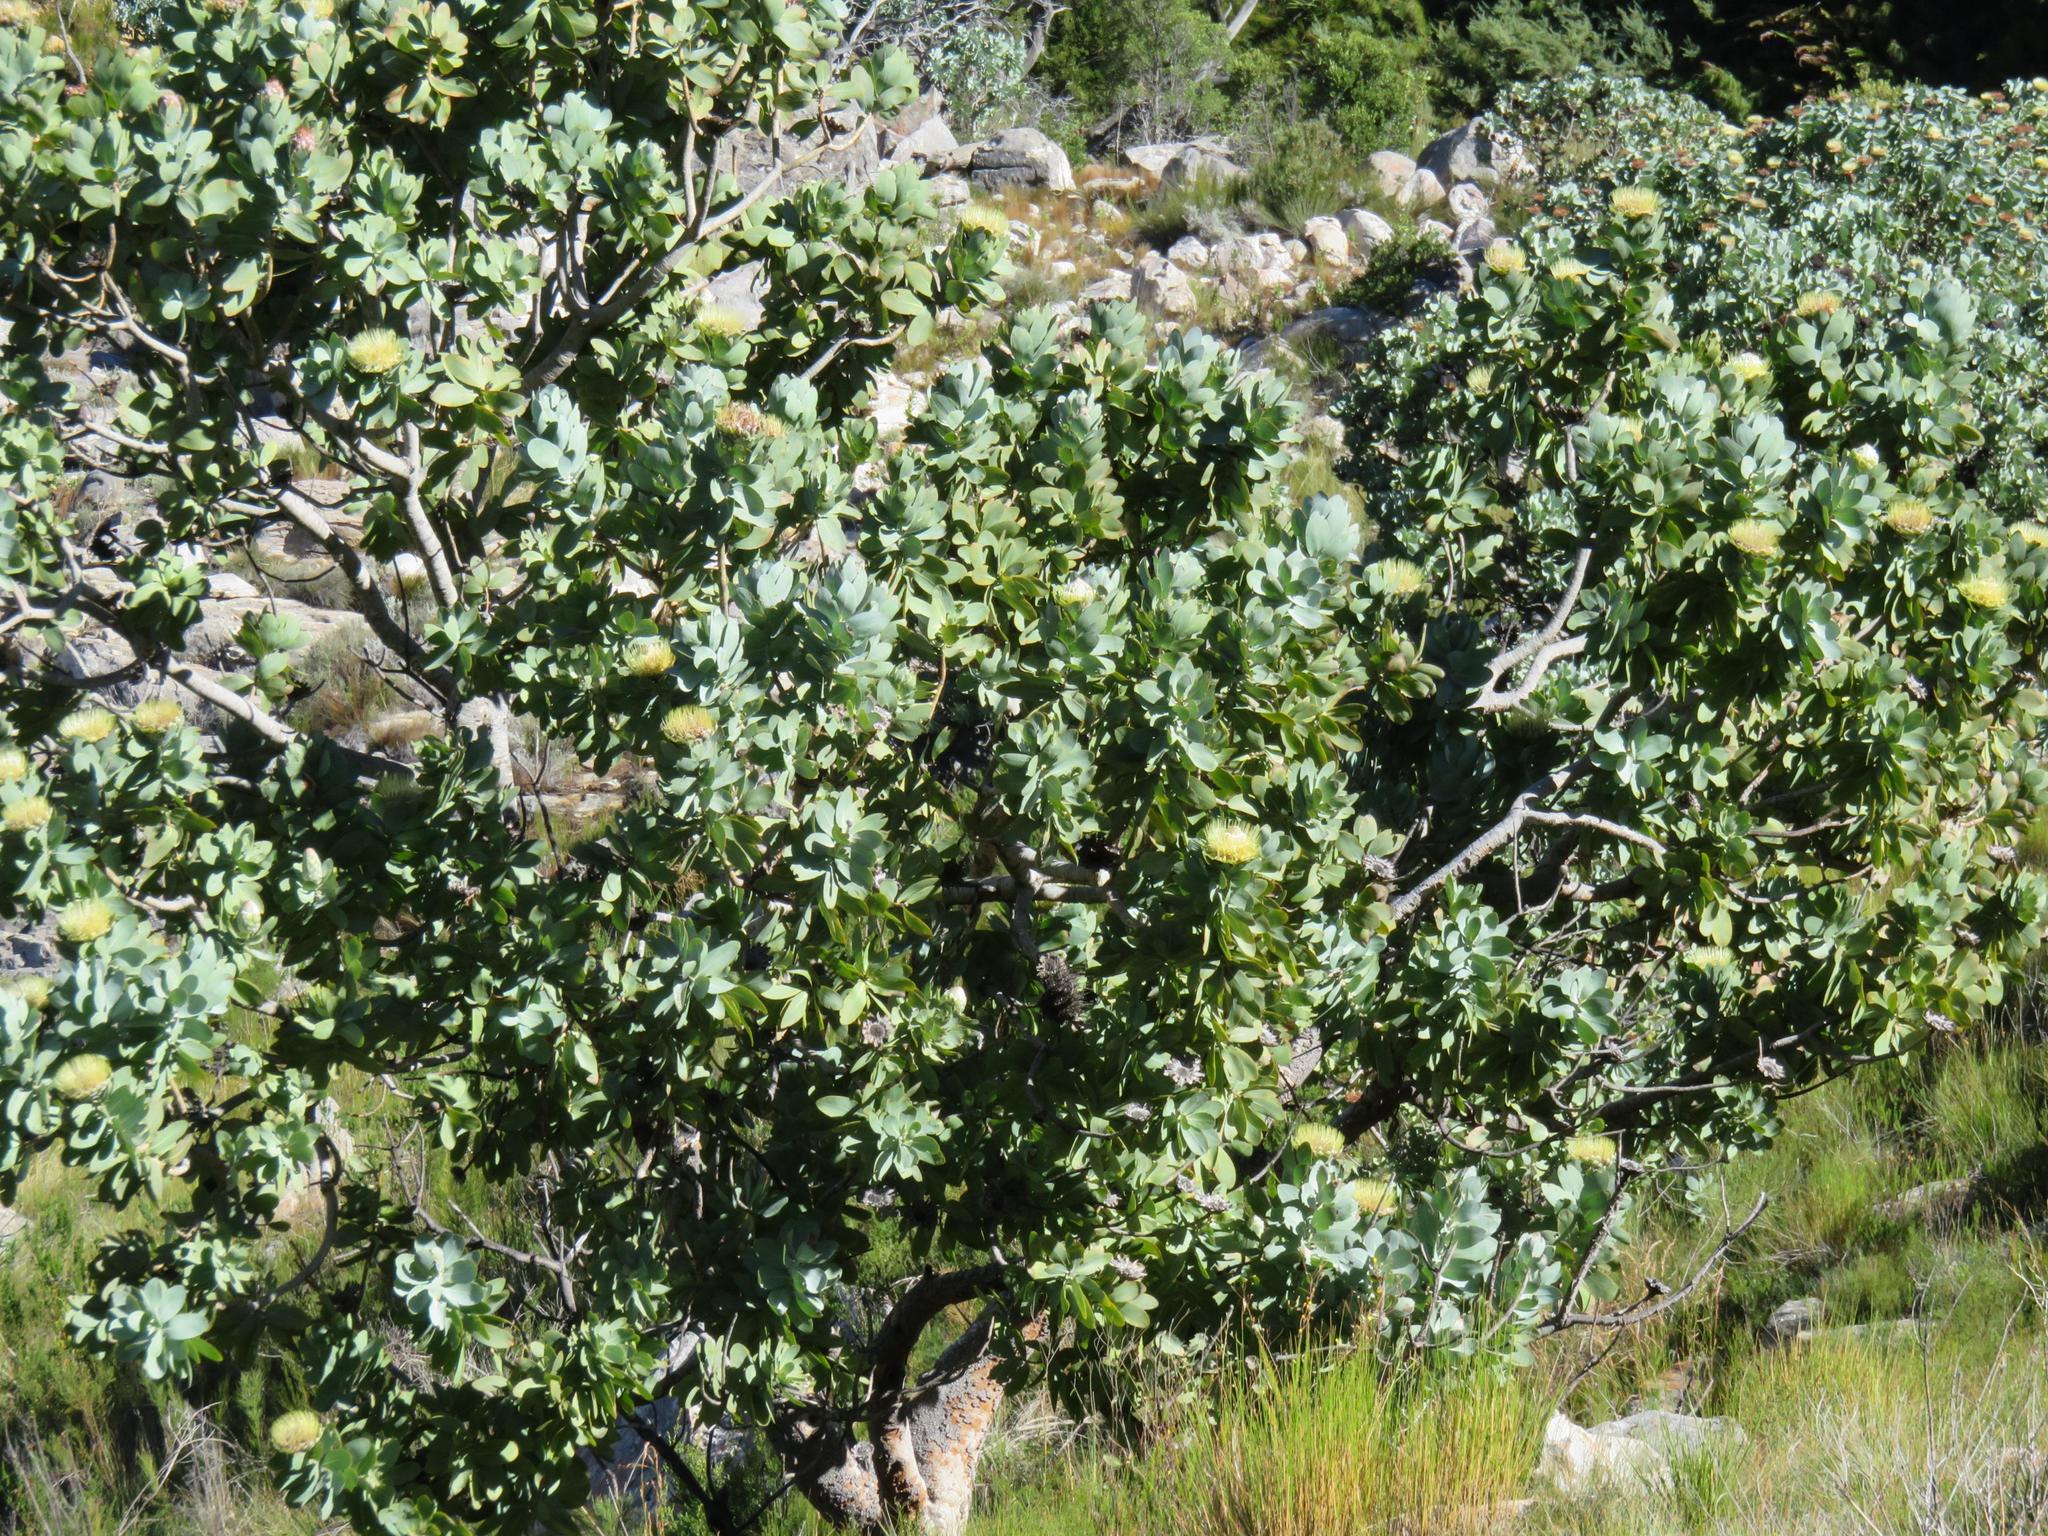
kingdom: Plantae
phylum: Tracheophyta
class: Magnoliopsida
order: Proteales
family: Proteaceae
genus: Protea
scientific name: Protea nitida
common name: Tree protea
